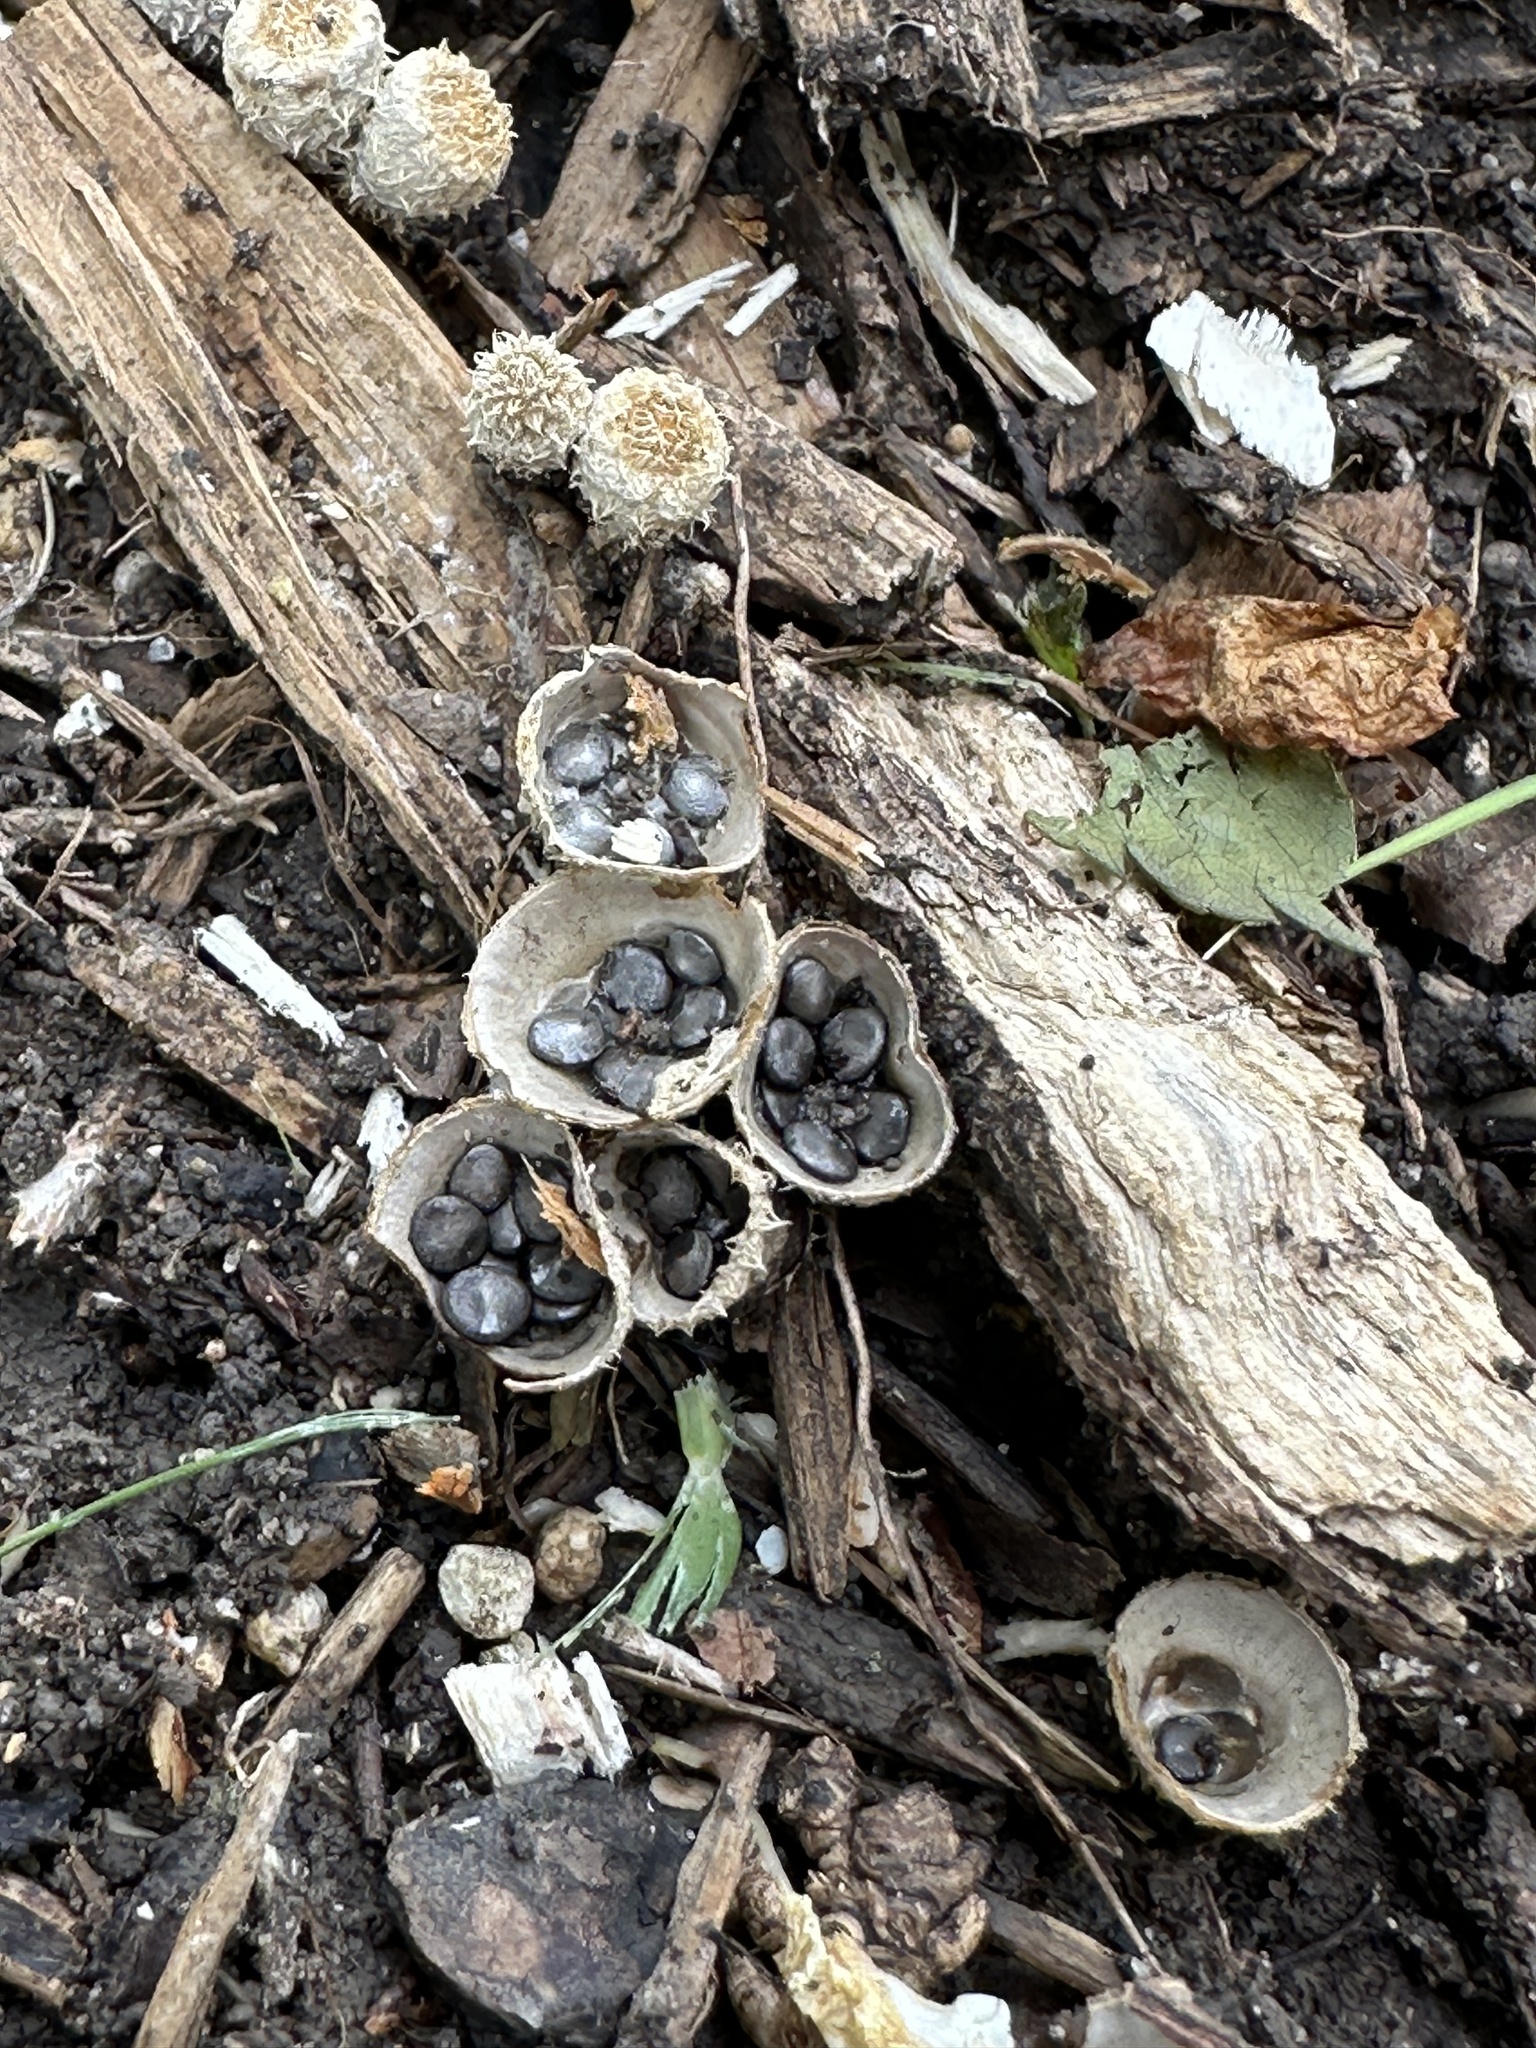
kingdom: Fungi
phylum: Basidiomycota
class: Agaricomycetes
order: Agaricales
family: Agaricaceae
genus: Cyathus
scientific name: Cyathus stercoreus
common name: Dung bird's nest
